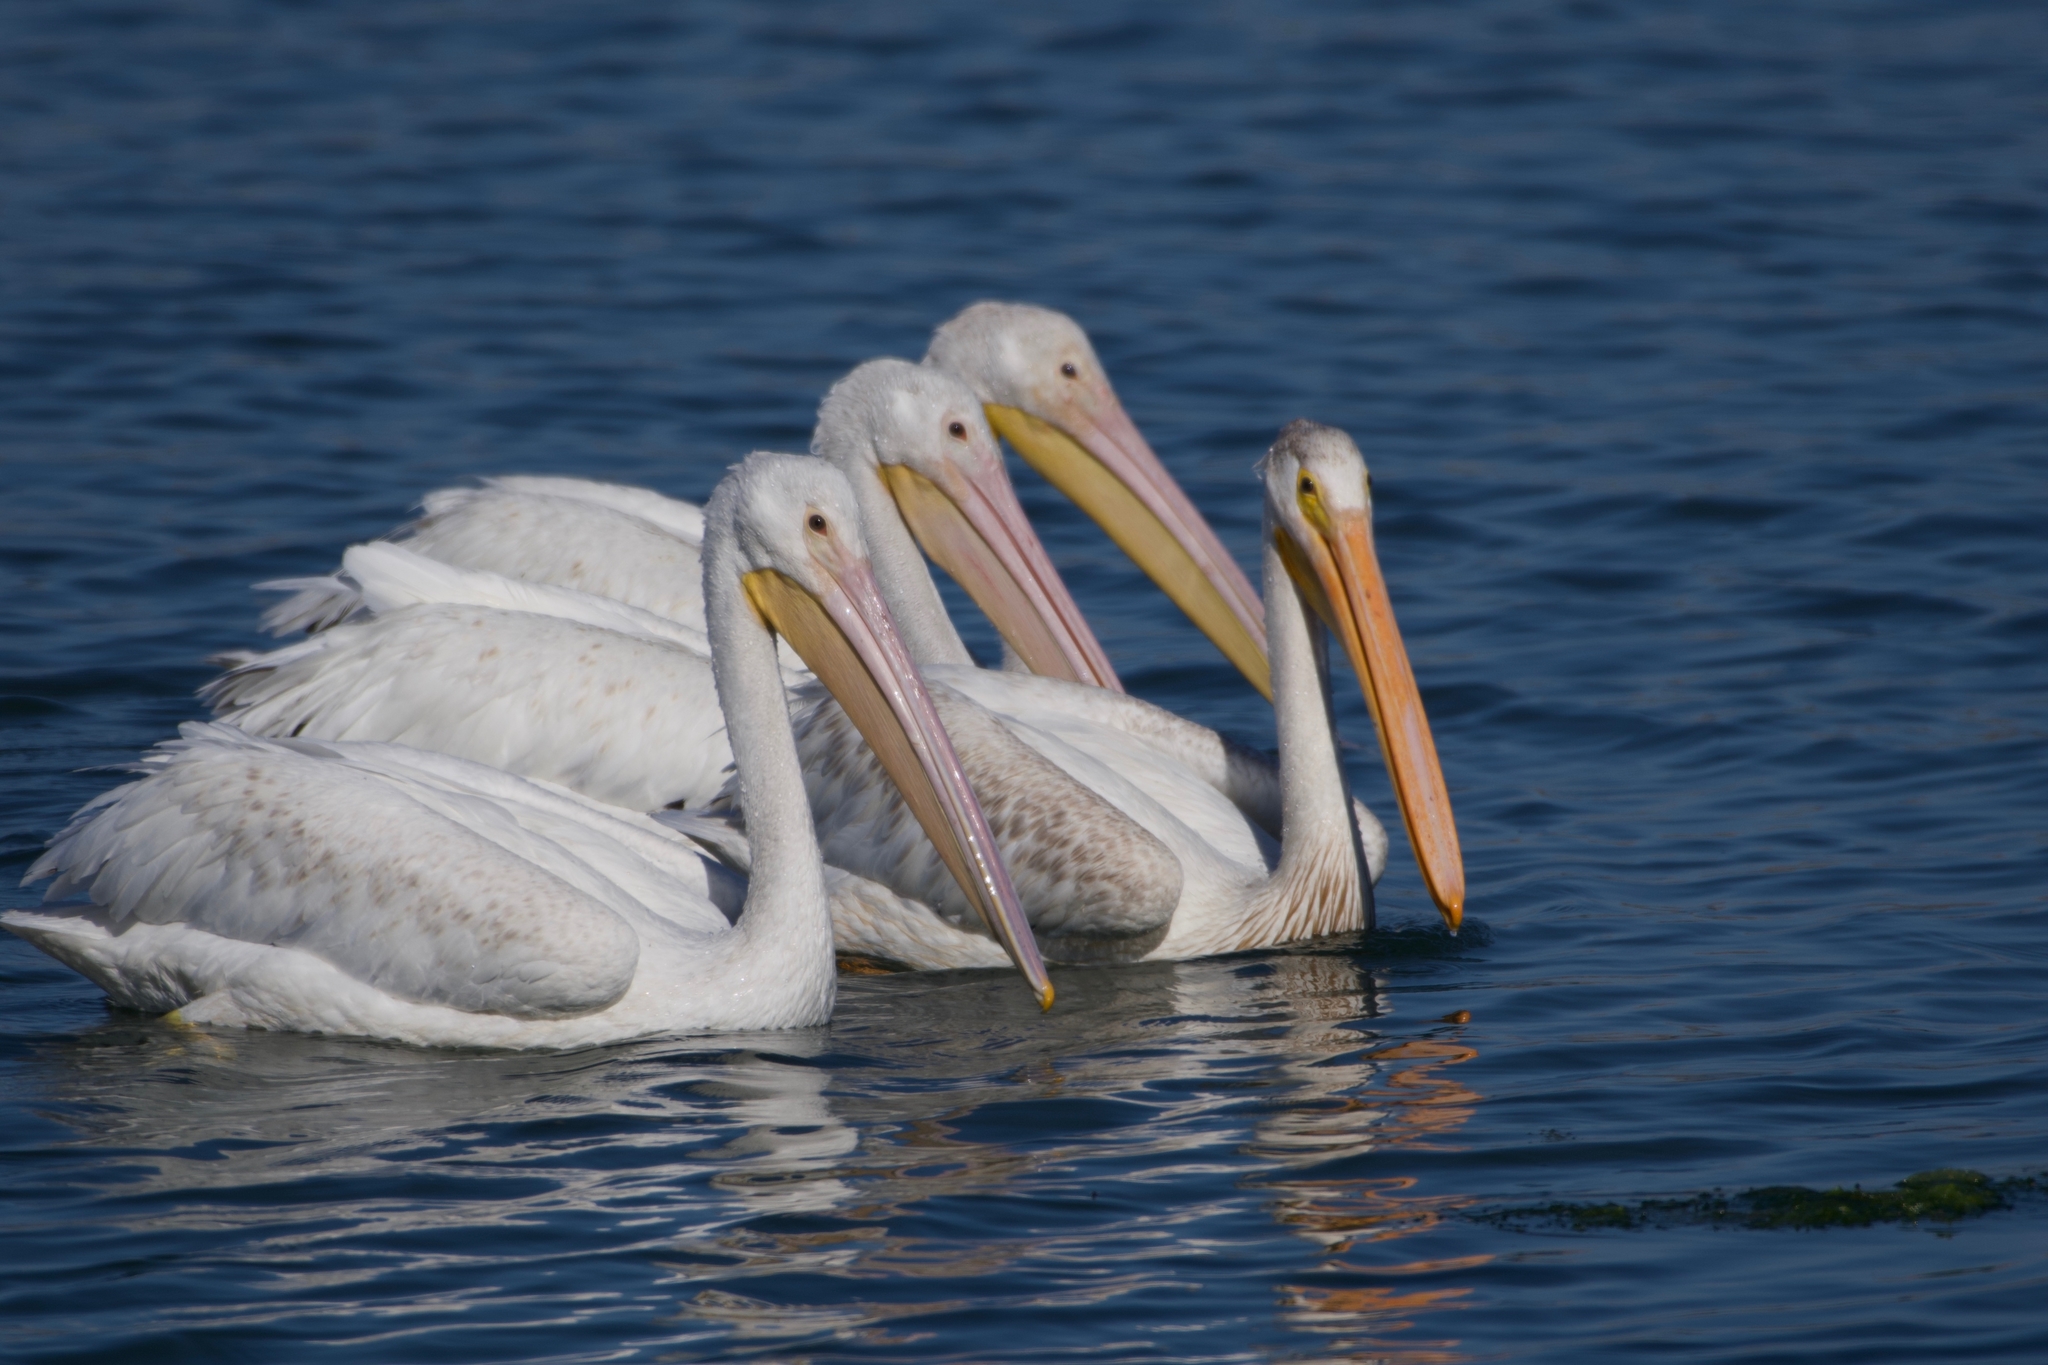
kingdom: Animalia
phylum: Chordata
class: Aves
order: Pelecaniformes
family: Pelecanidae
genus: Pelecanus
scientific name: Pelecanus erythrorhynchos
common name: American white pelican
